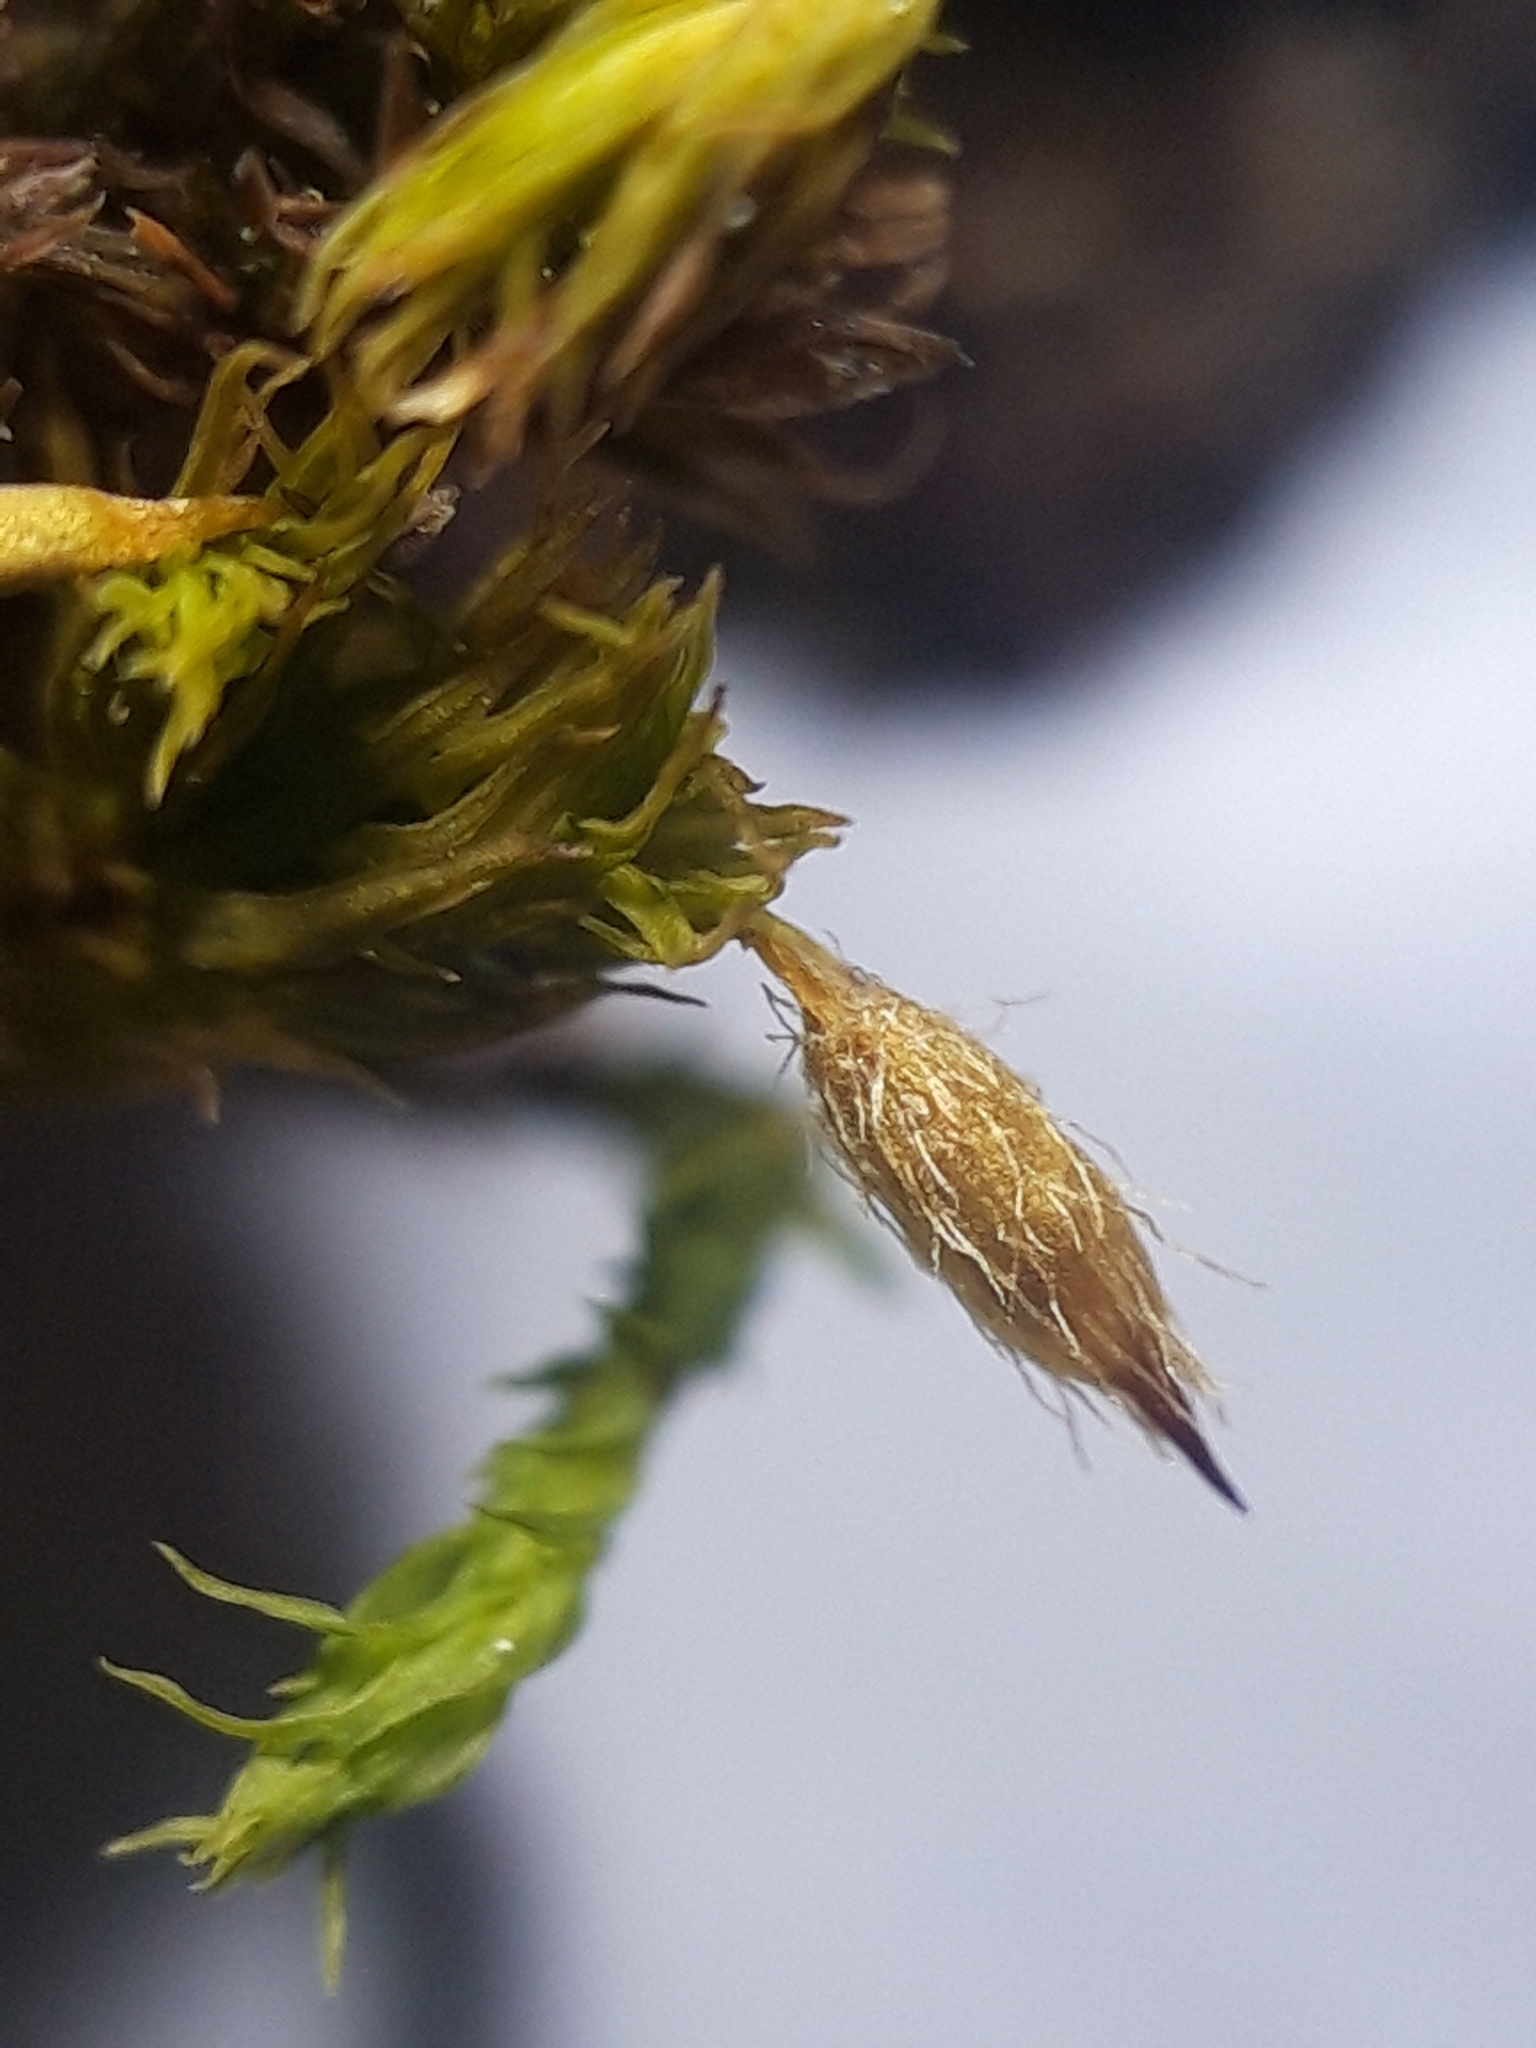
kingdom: Plantae
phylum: Bryophyta
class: Bryopsida
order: Orthotrichales
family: Orthotrichaceae
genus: Lewinskya
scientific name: Lewinskya speciosa
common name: Showy bristle moss
